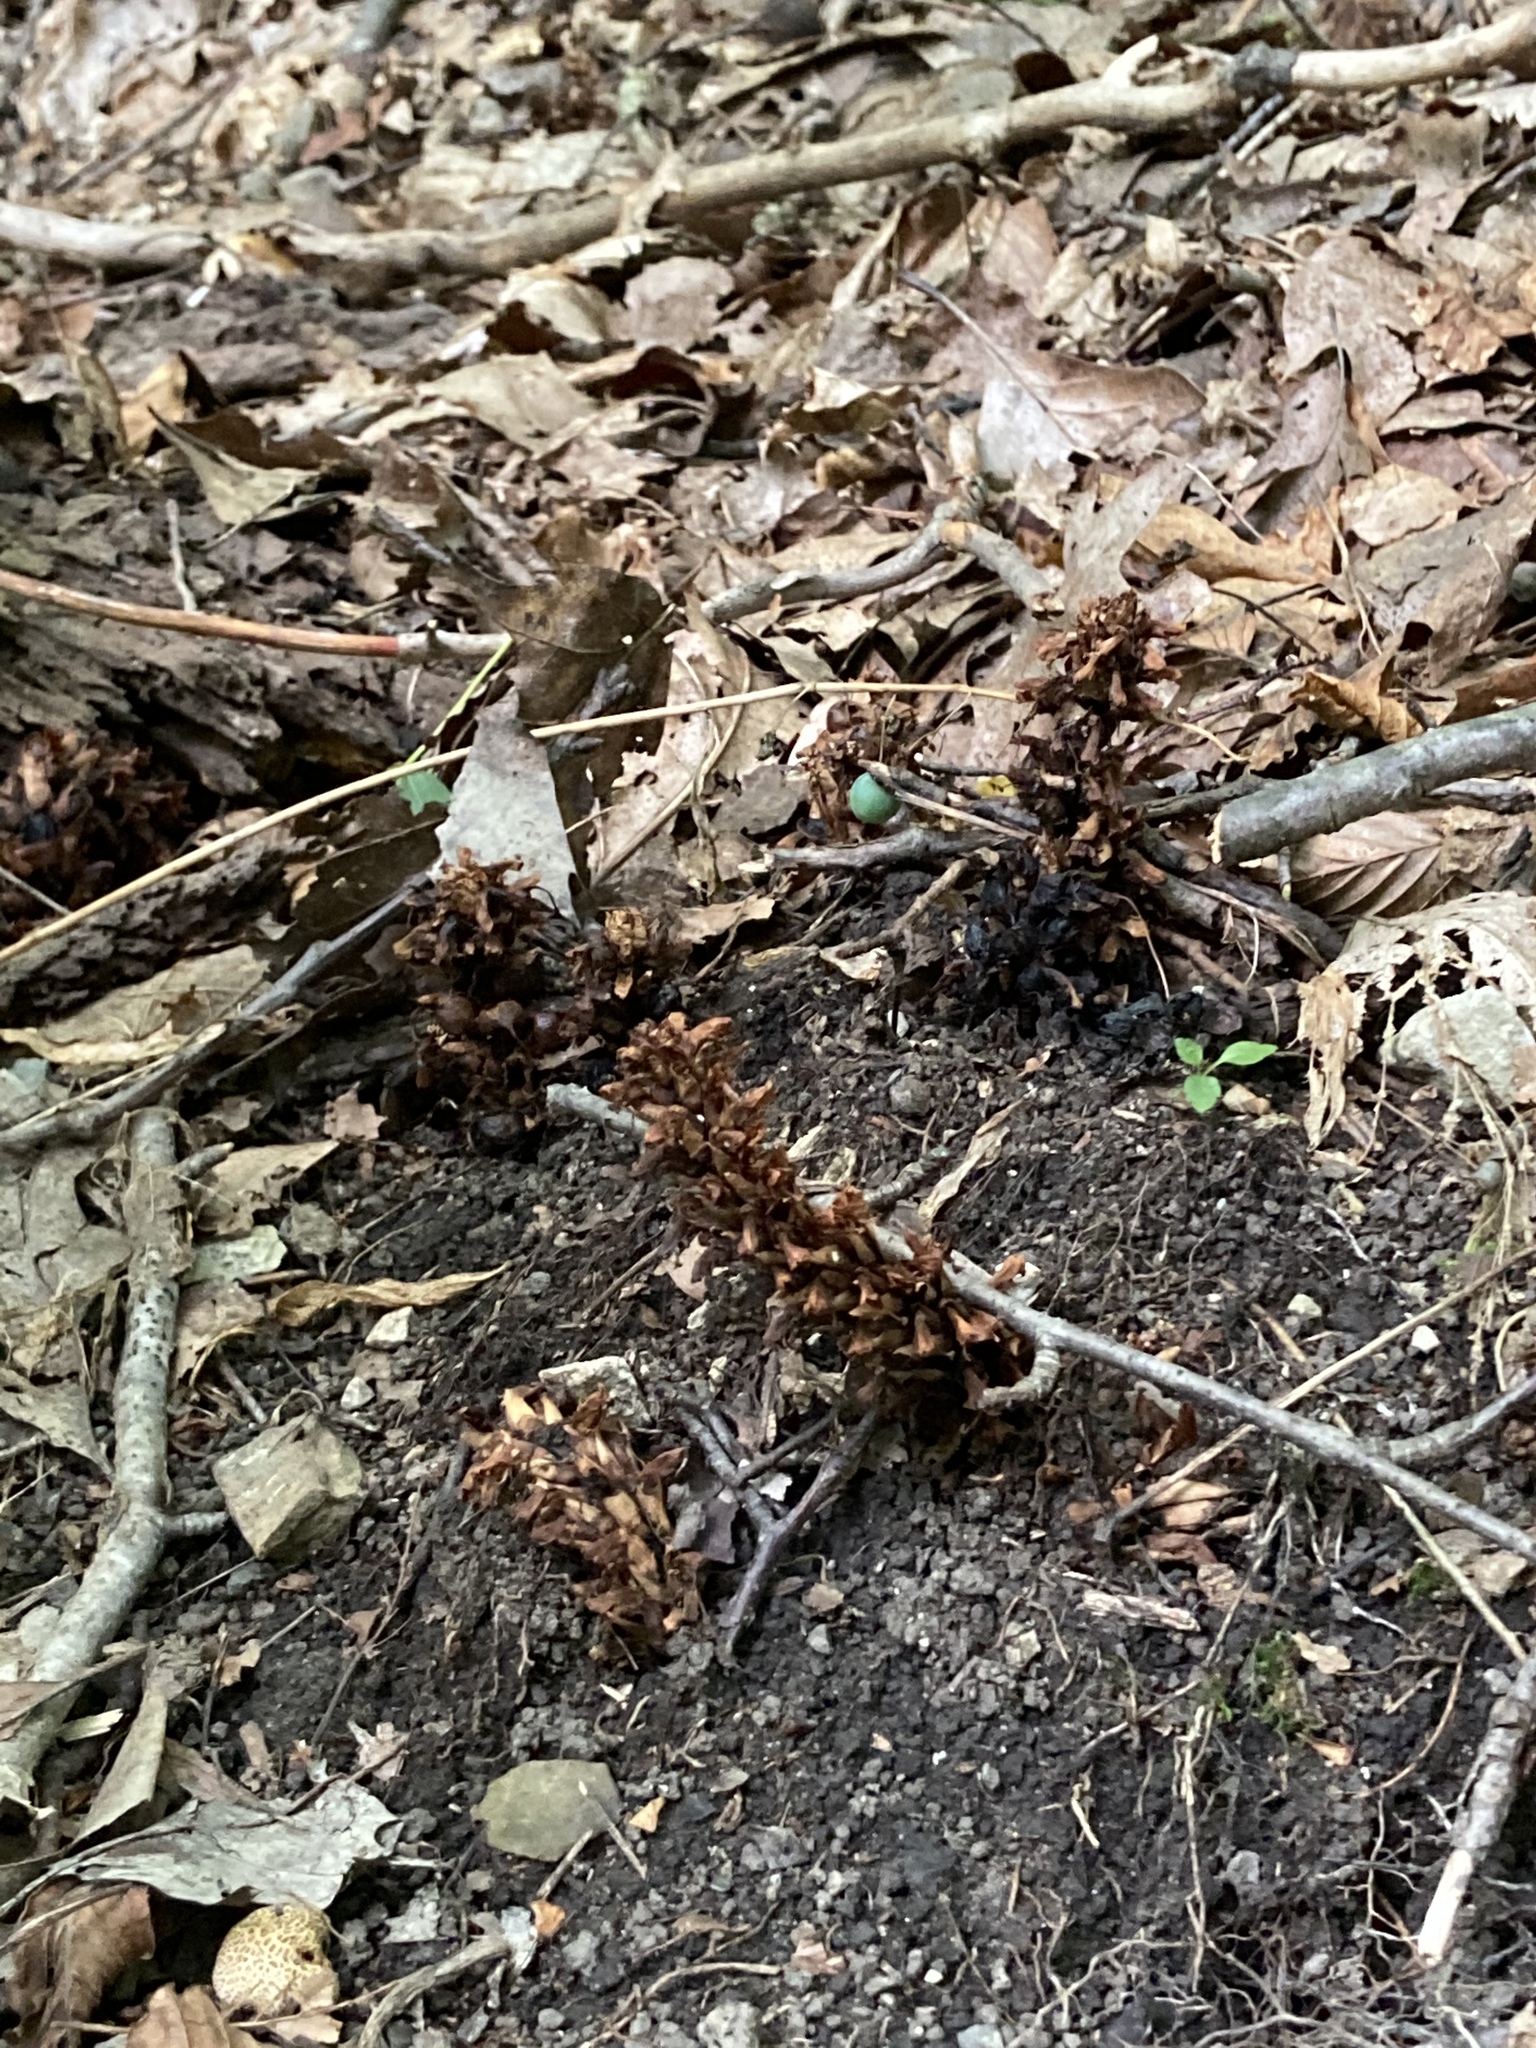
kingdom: Plantae
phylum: Tracheophyta
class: Magnoliopsida
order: Lamiales
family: Orobanchaceae
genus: Conopholis
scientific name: Conopholis americana
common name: American cancer-root
